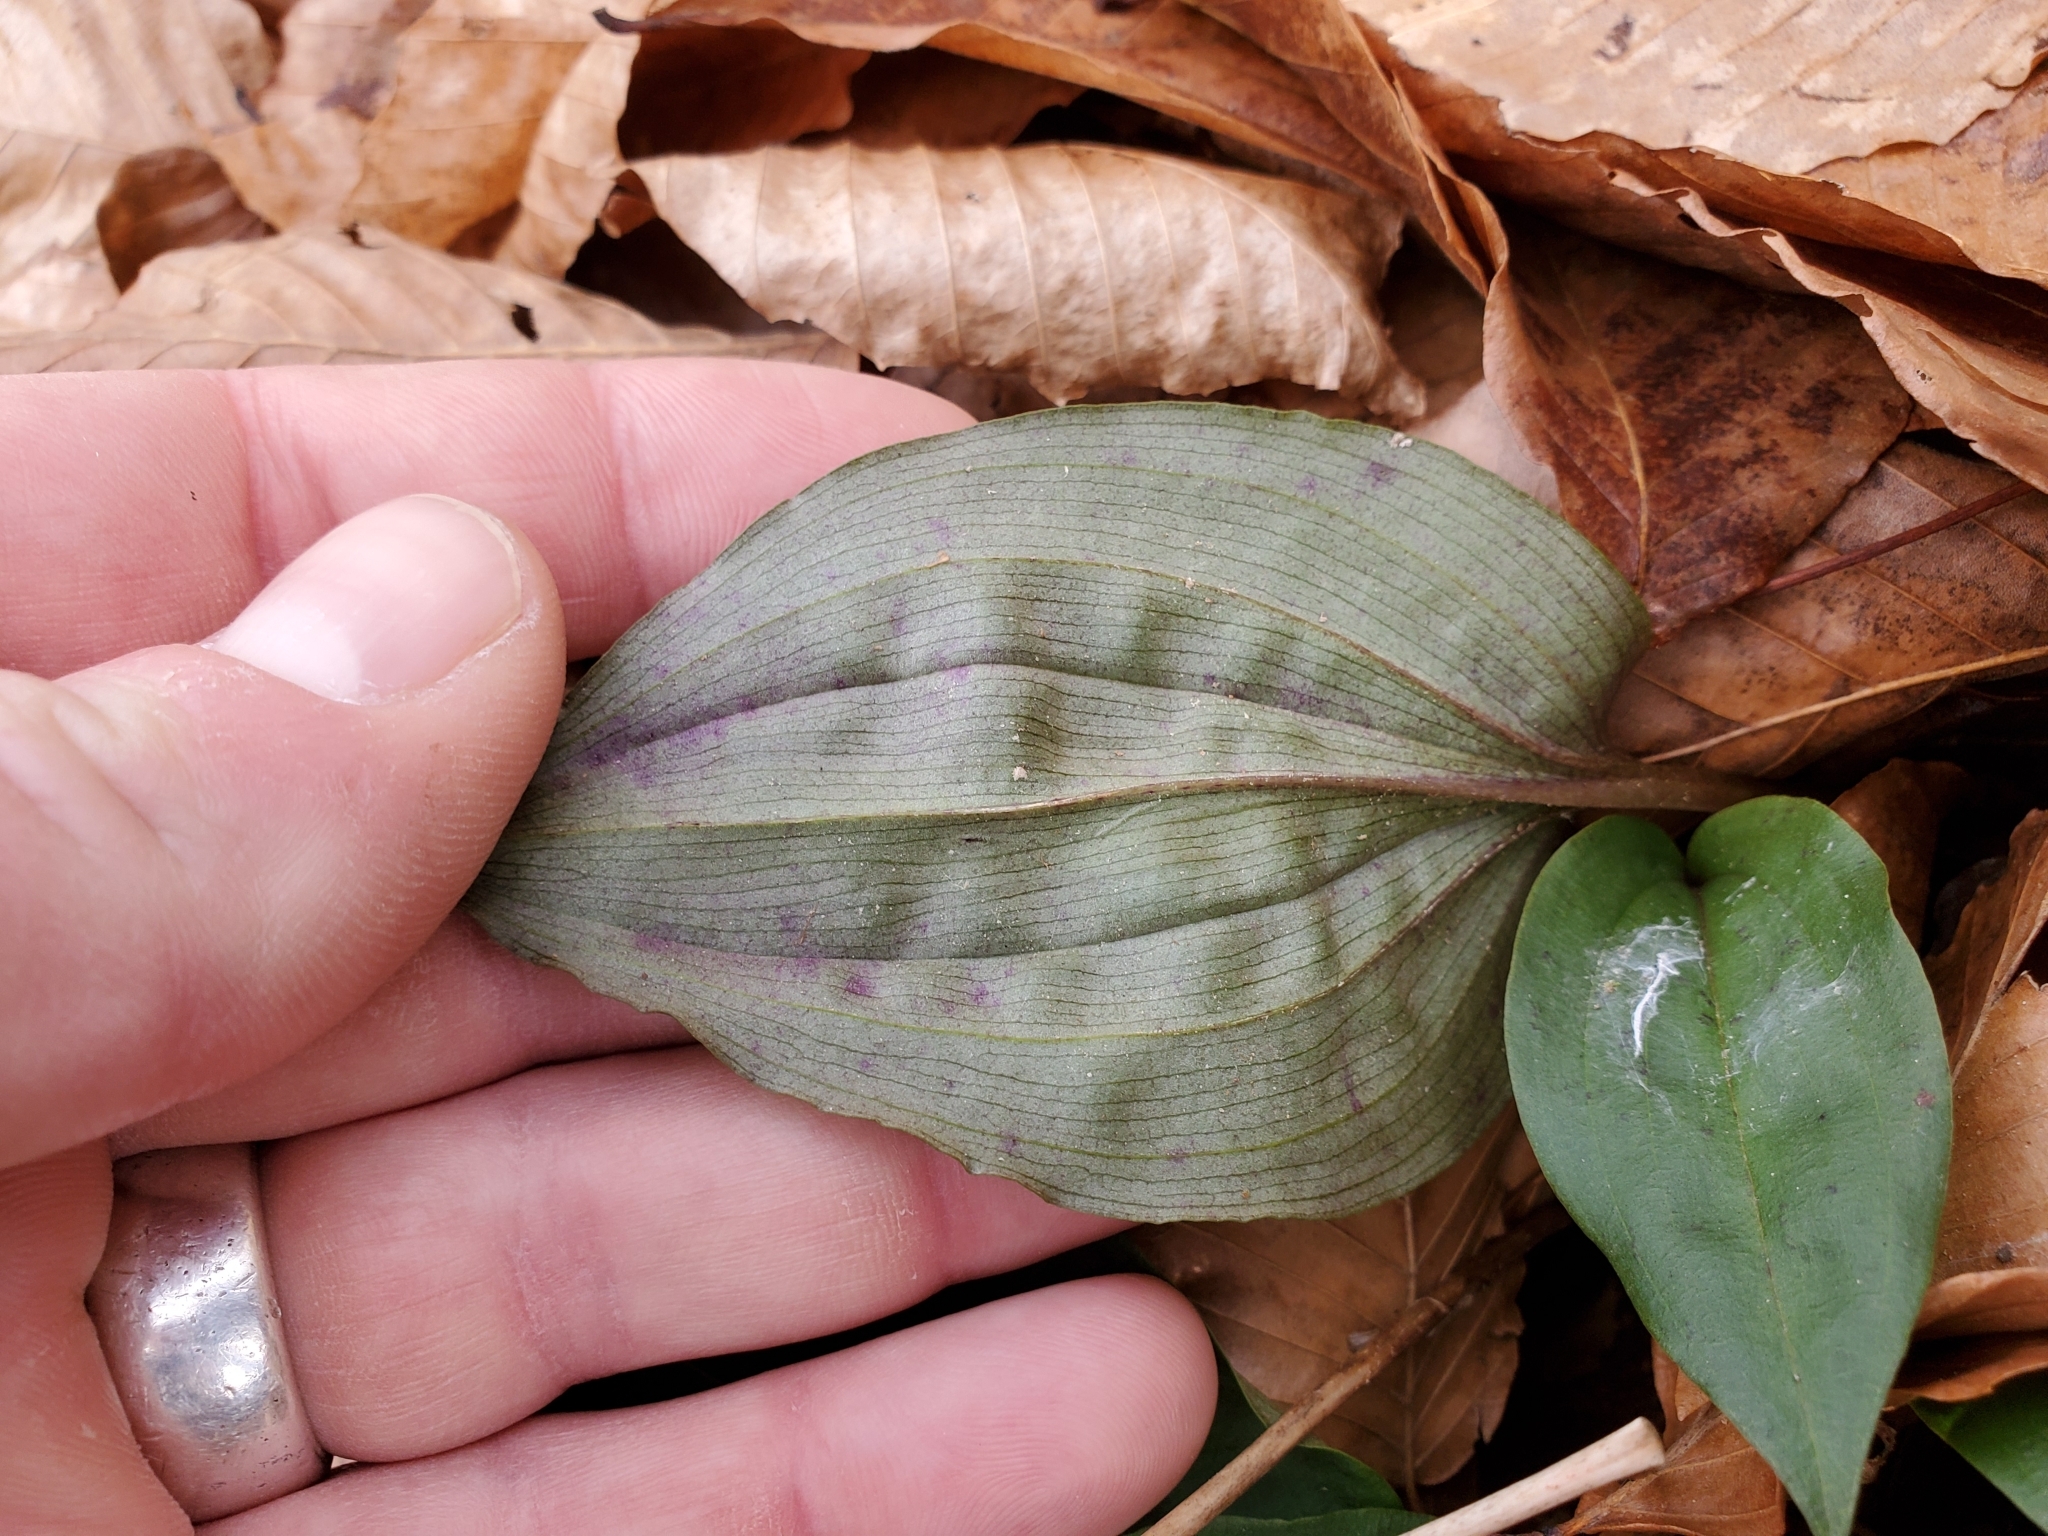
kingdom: Plantae
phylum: Tracheophyta
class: Liliopsida
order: Asparagales
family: Orchidaceae
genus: Tipularia
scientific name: Tipularia discolor
